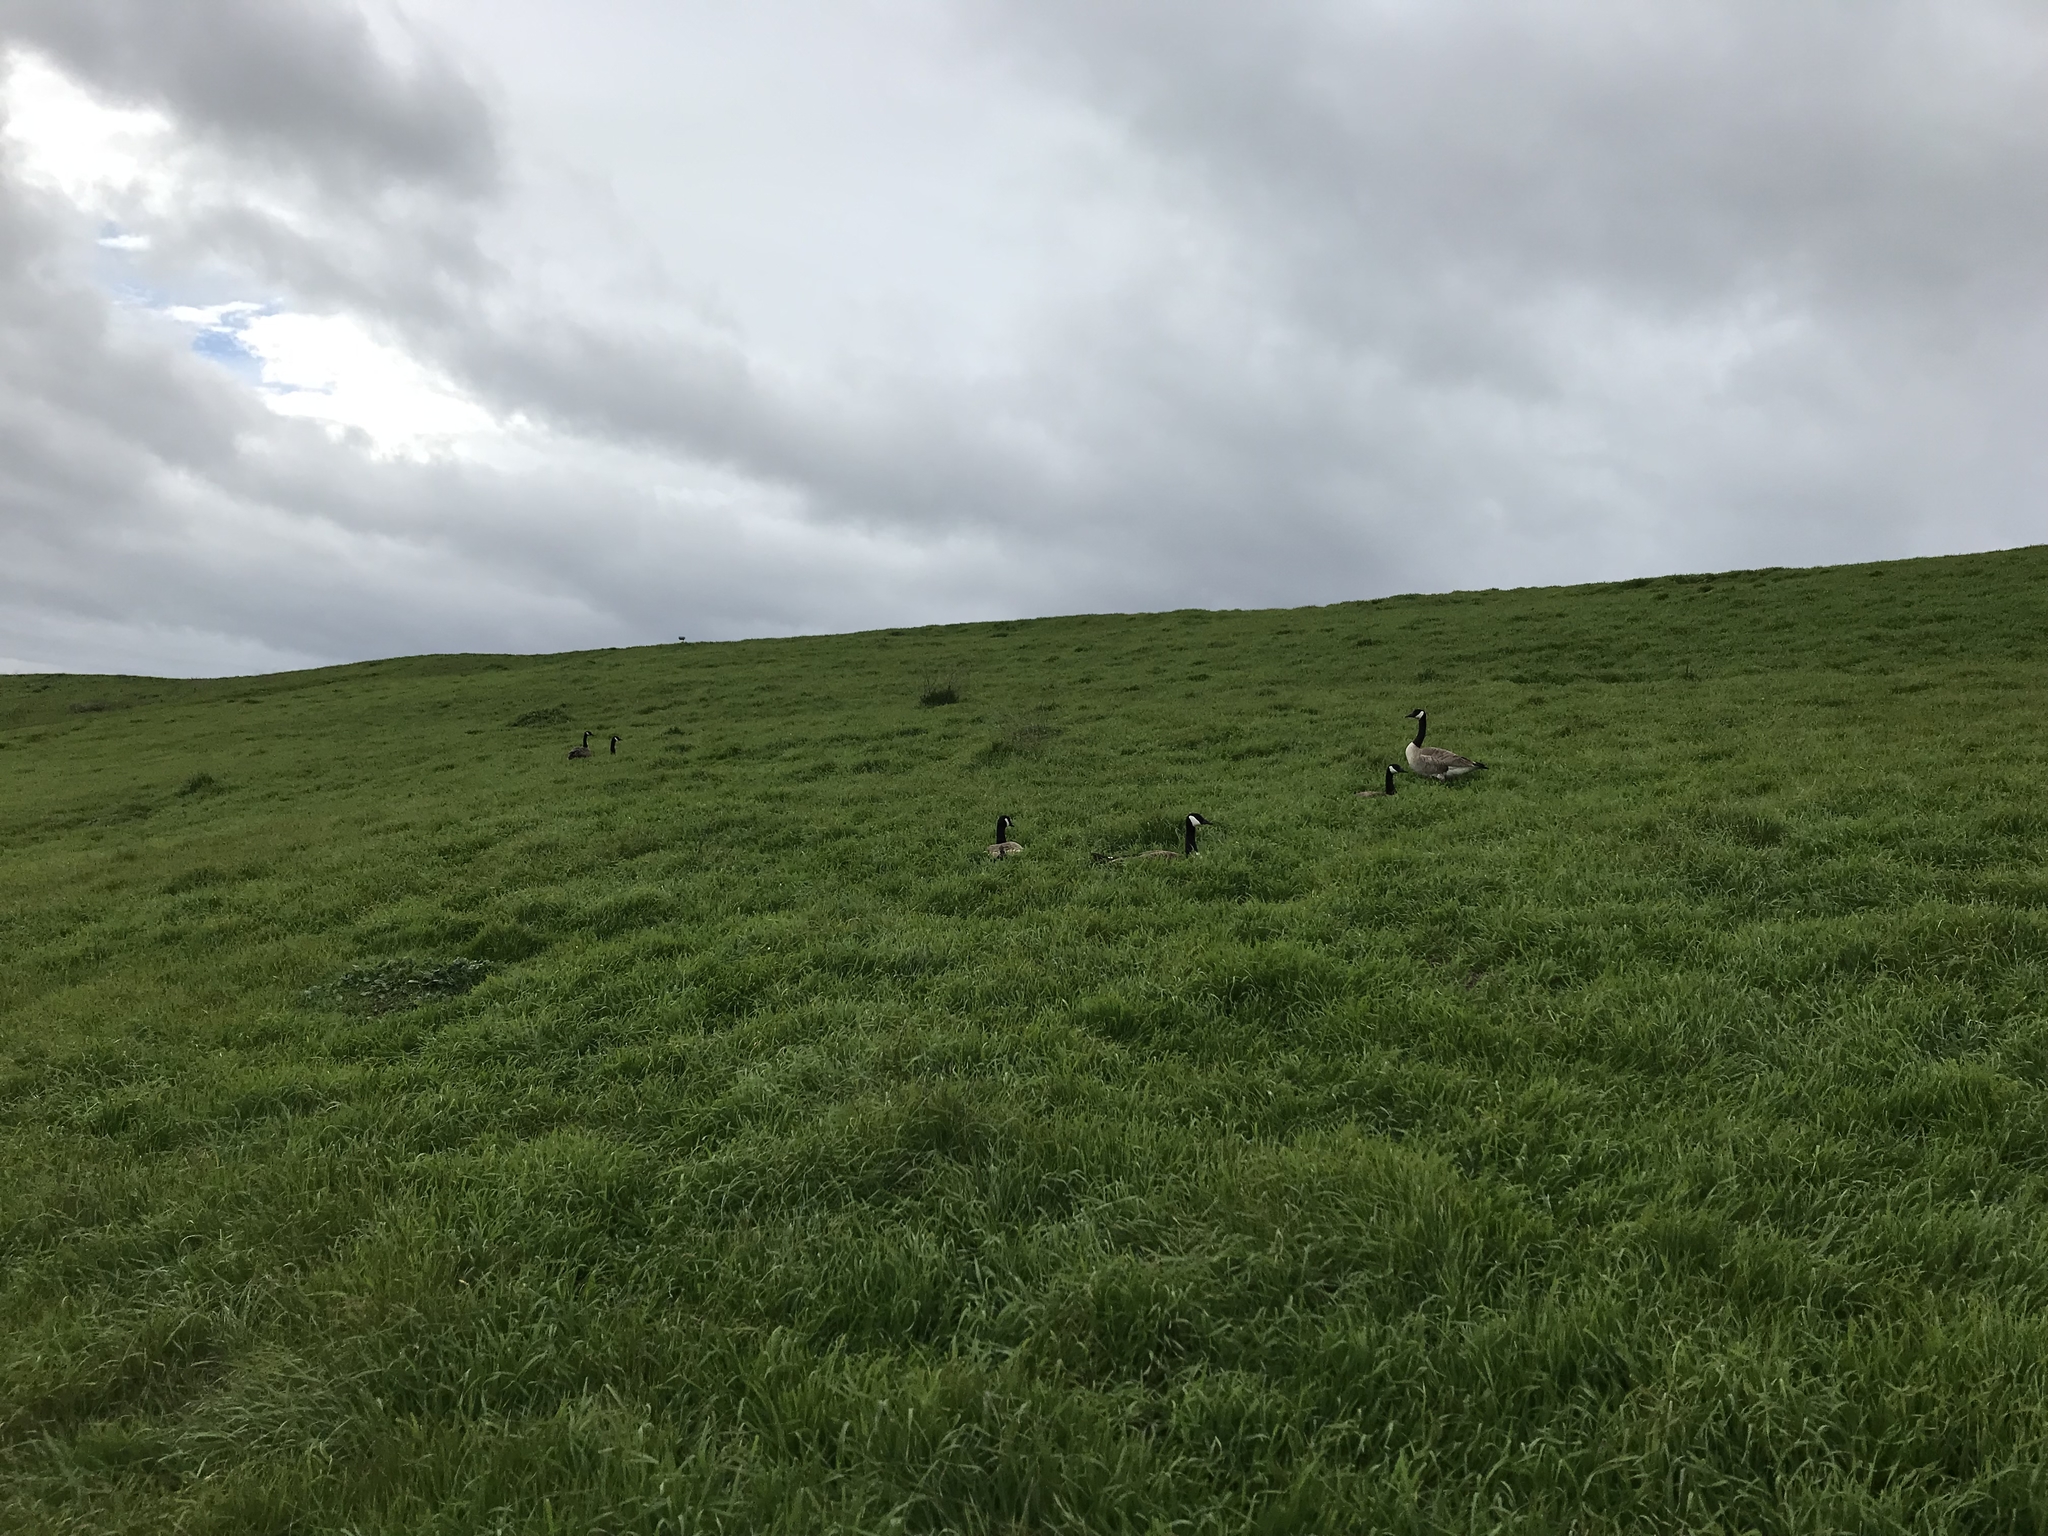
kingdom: Animalia
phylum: Chordata
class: Aves
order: Anseriformes
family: Anatidae
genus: Branta
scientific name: Branta canadensis
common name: Canada goose
